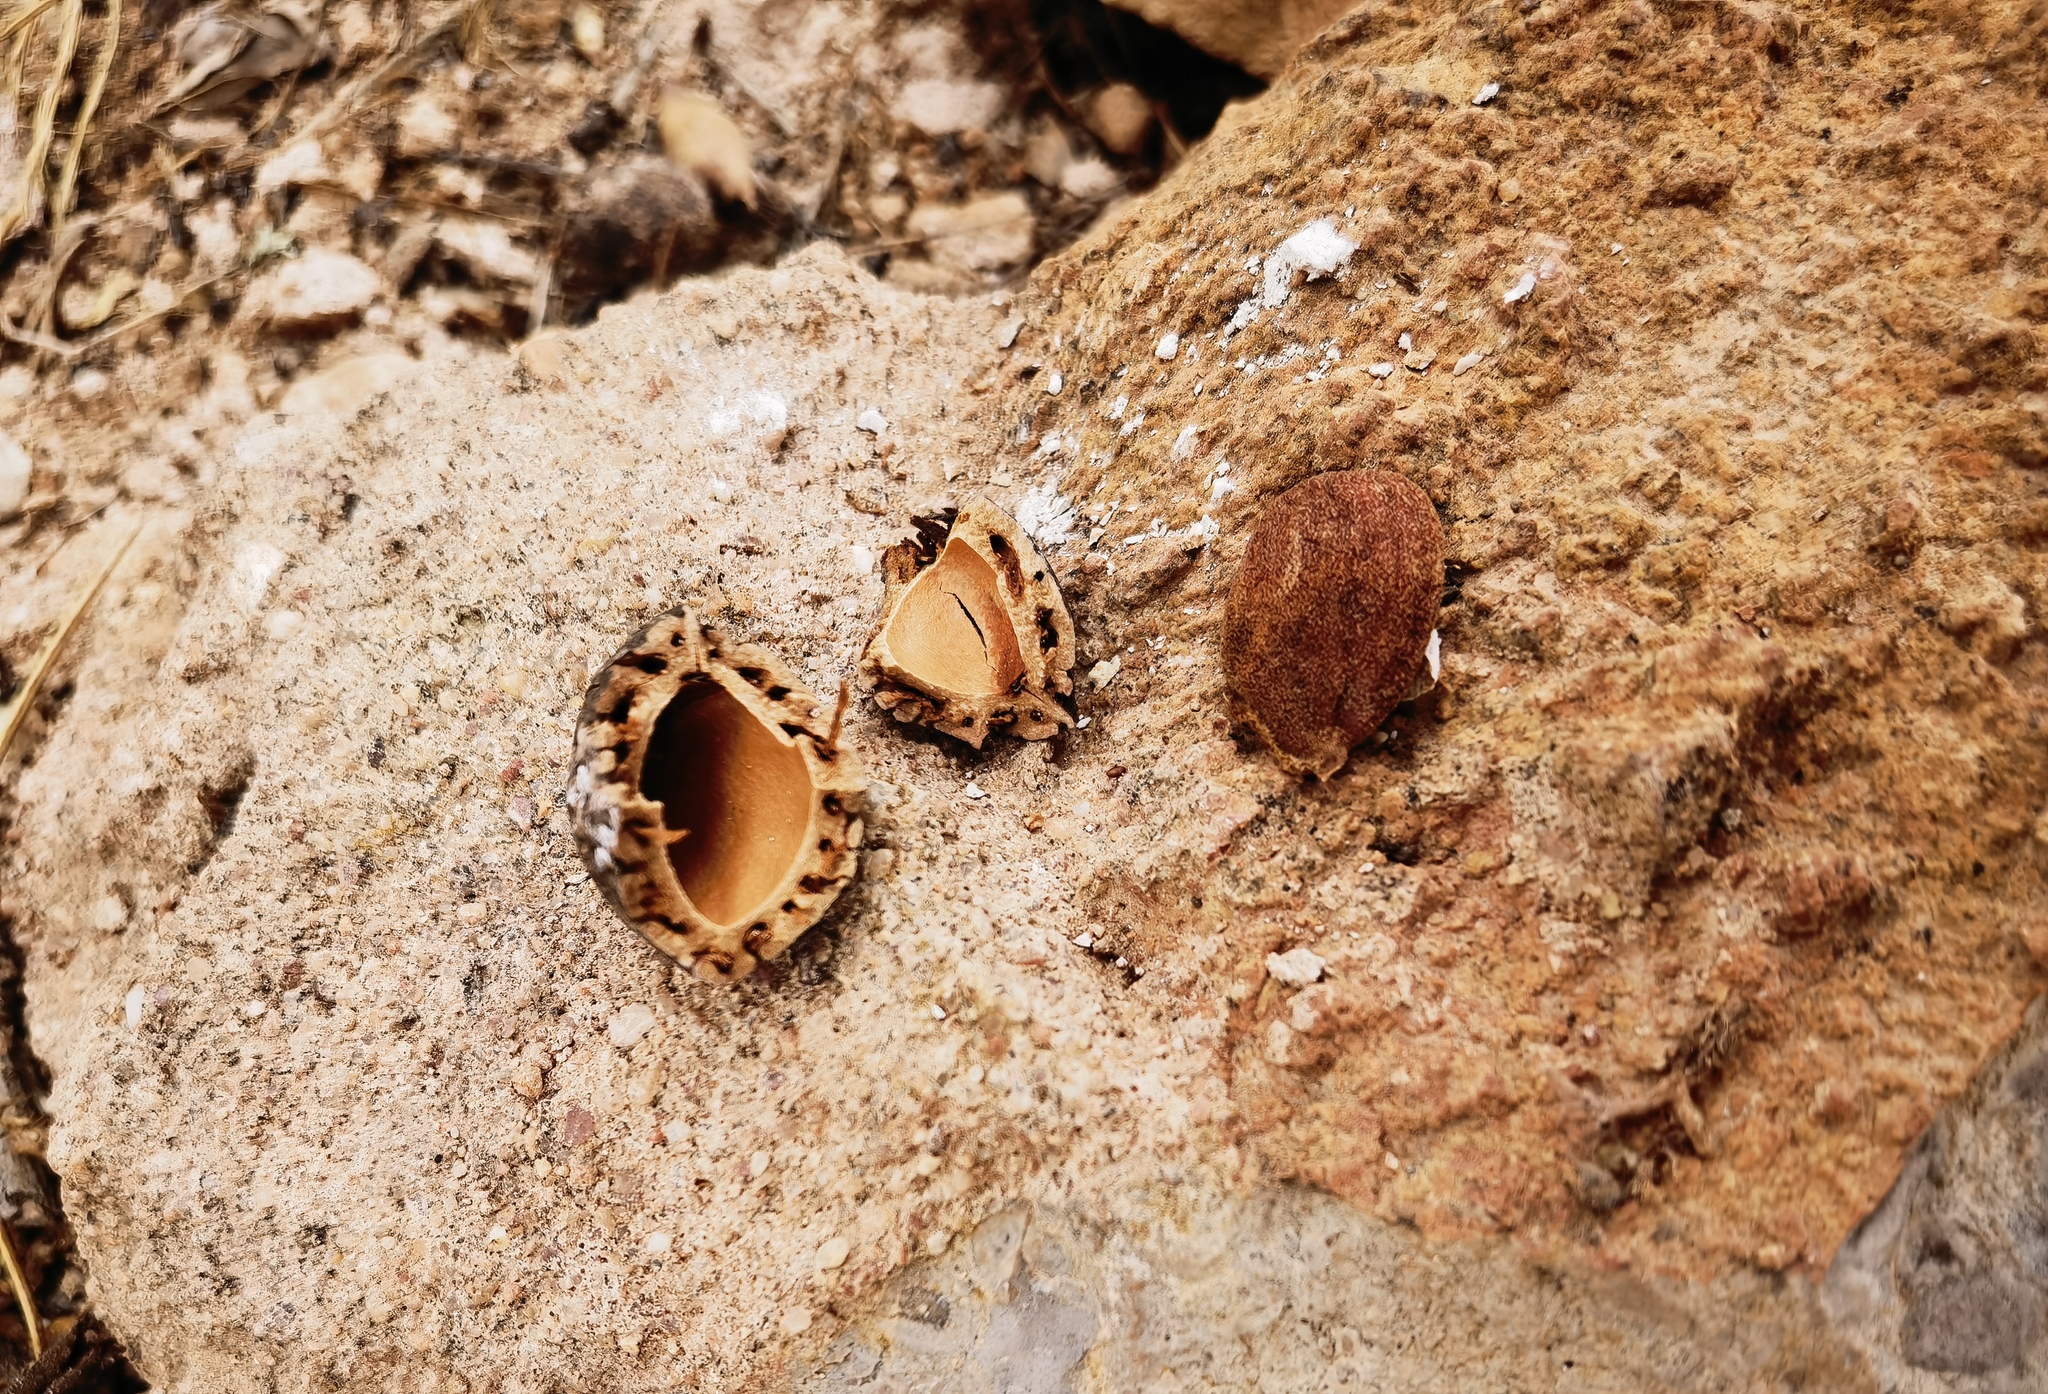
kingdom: Plantae
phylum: Tracheophyta
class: Magnoliopsida
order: Rosales
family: Rosaceae
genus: Prunus
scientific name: Prunus amygdalus
